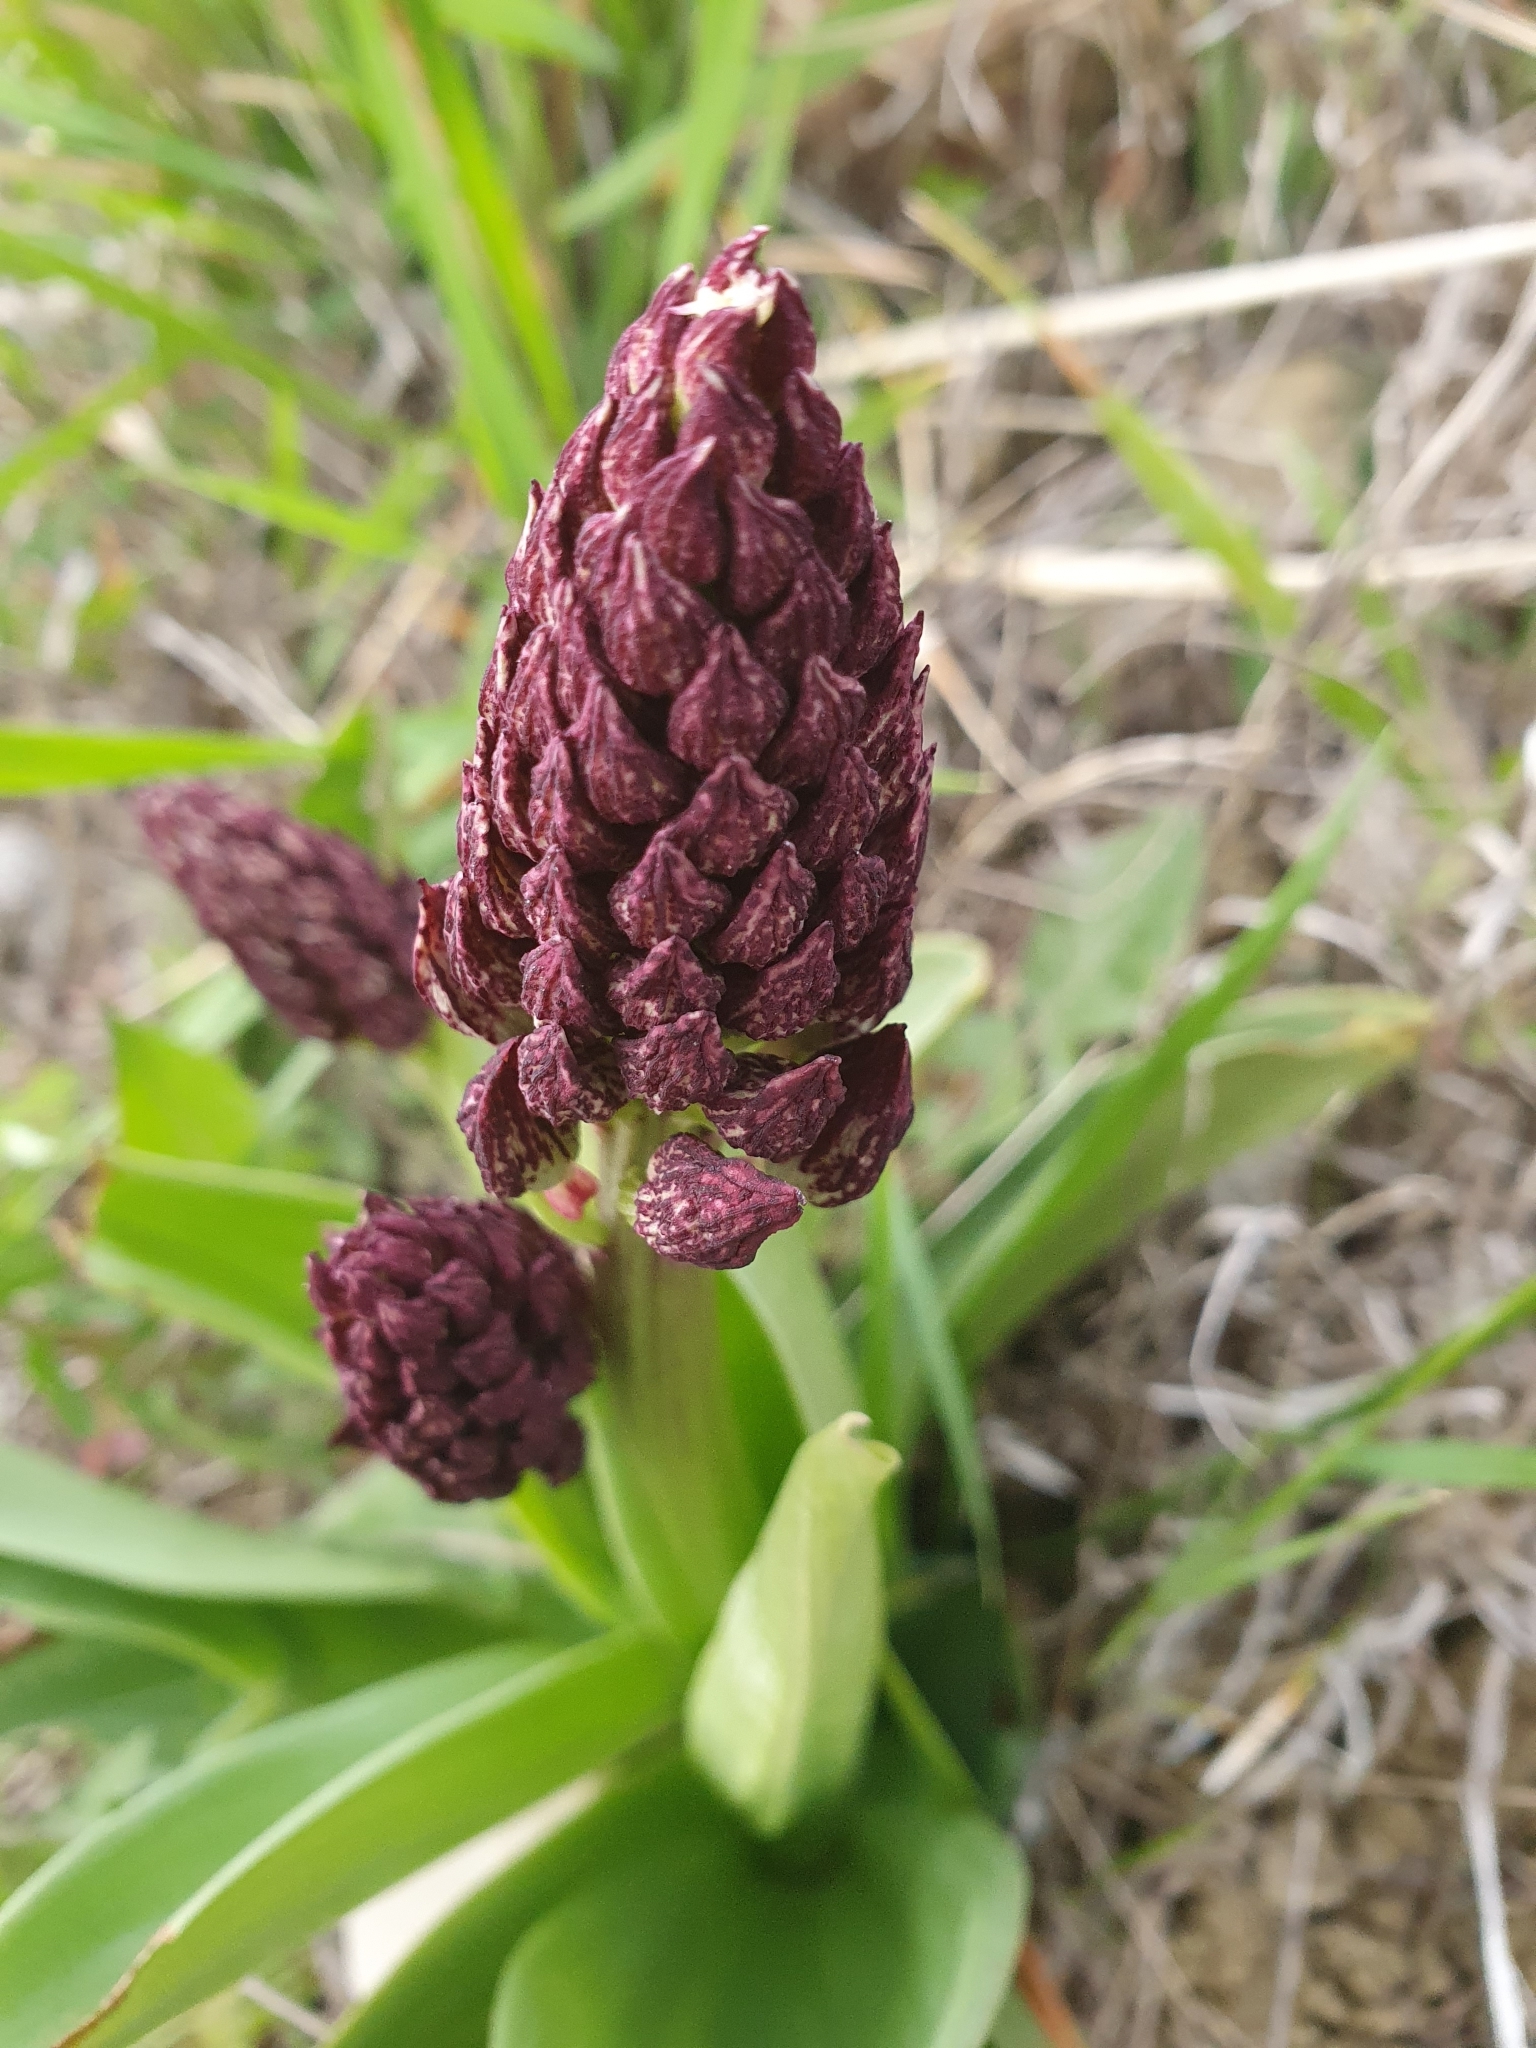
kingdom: Plantae
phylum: Tracheophyta
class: Liliopsida
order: Asparagales
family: Orchidaceae
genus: Orchis
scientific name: Orchis purpurea
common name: Lady orchid
